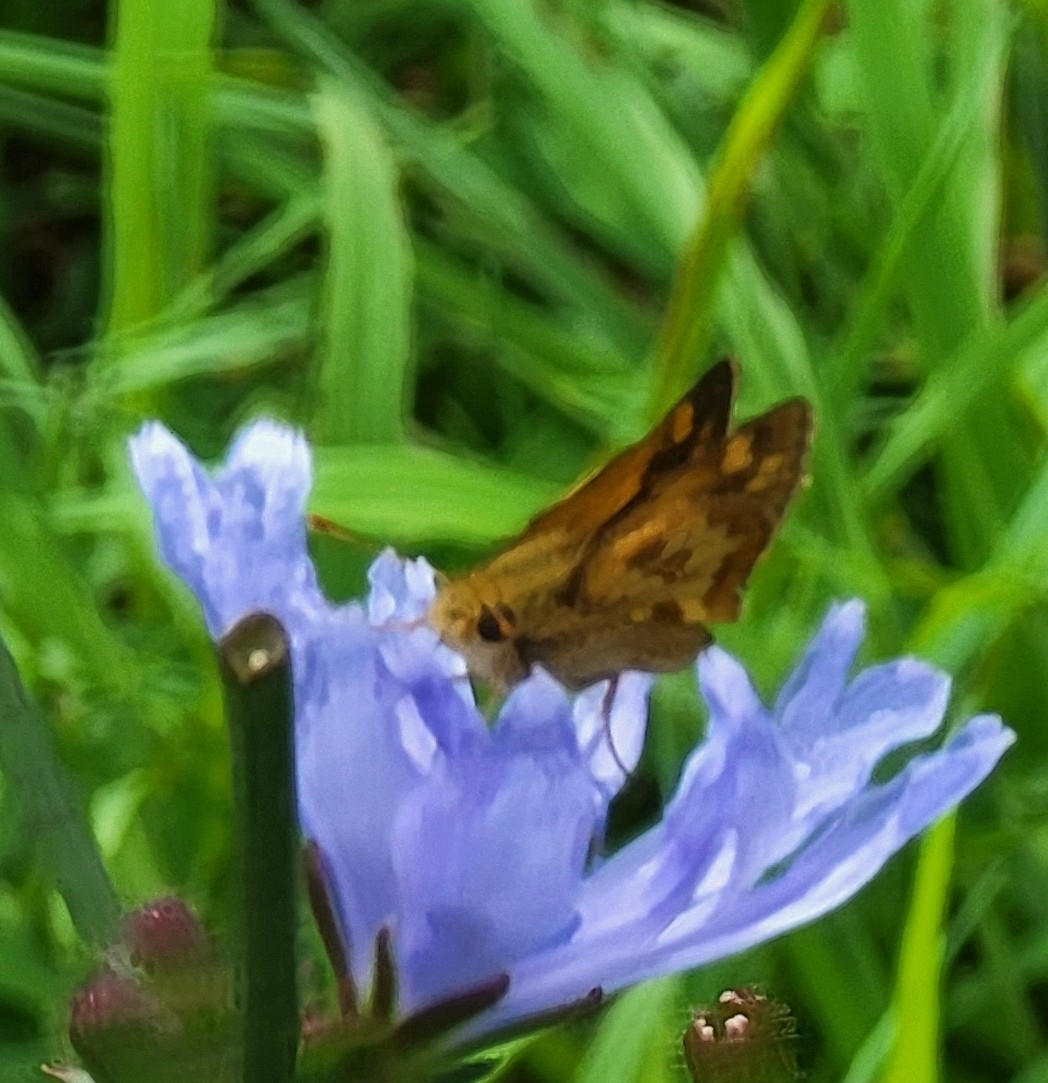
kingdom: Animalia
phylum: Arthropoda
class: Insecta
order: Lepidoptera
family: Hesperiidae
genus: Polites
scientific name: Polites coras
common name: Peck's skipper
